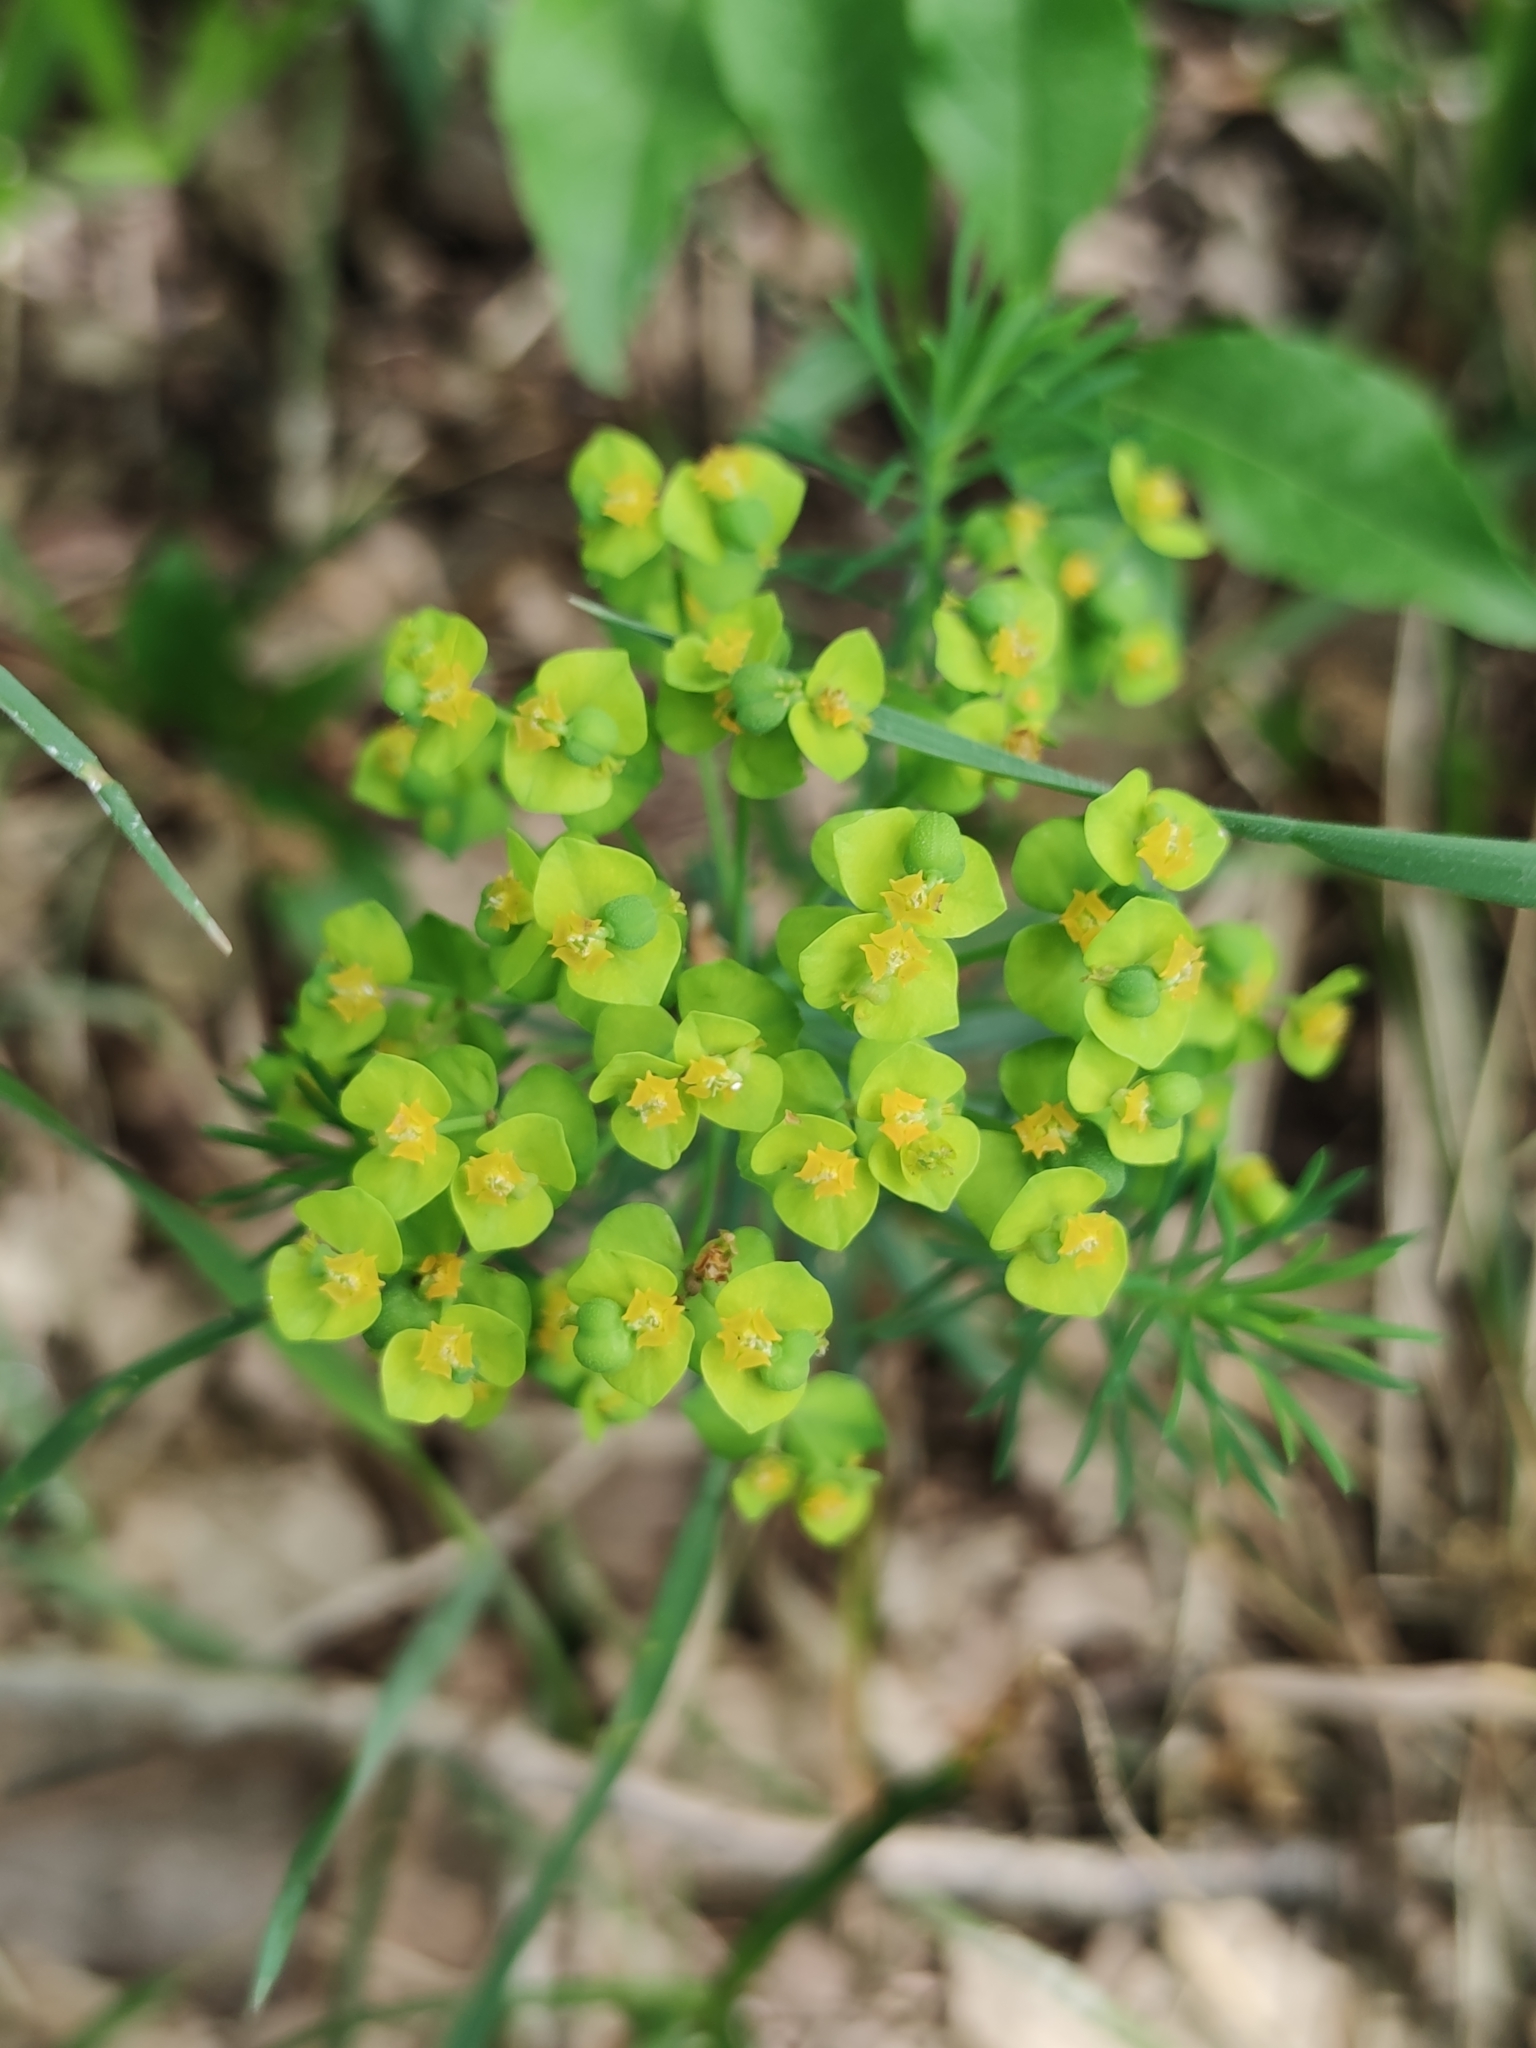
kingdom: Plantae
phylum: Tracheophyta
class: Magnoliopsida
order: Malpighiales
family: Euphorbiaceae
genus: Euphorbia
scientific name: Euphorbia cyparissias
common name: Cypress spurge
